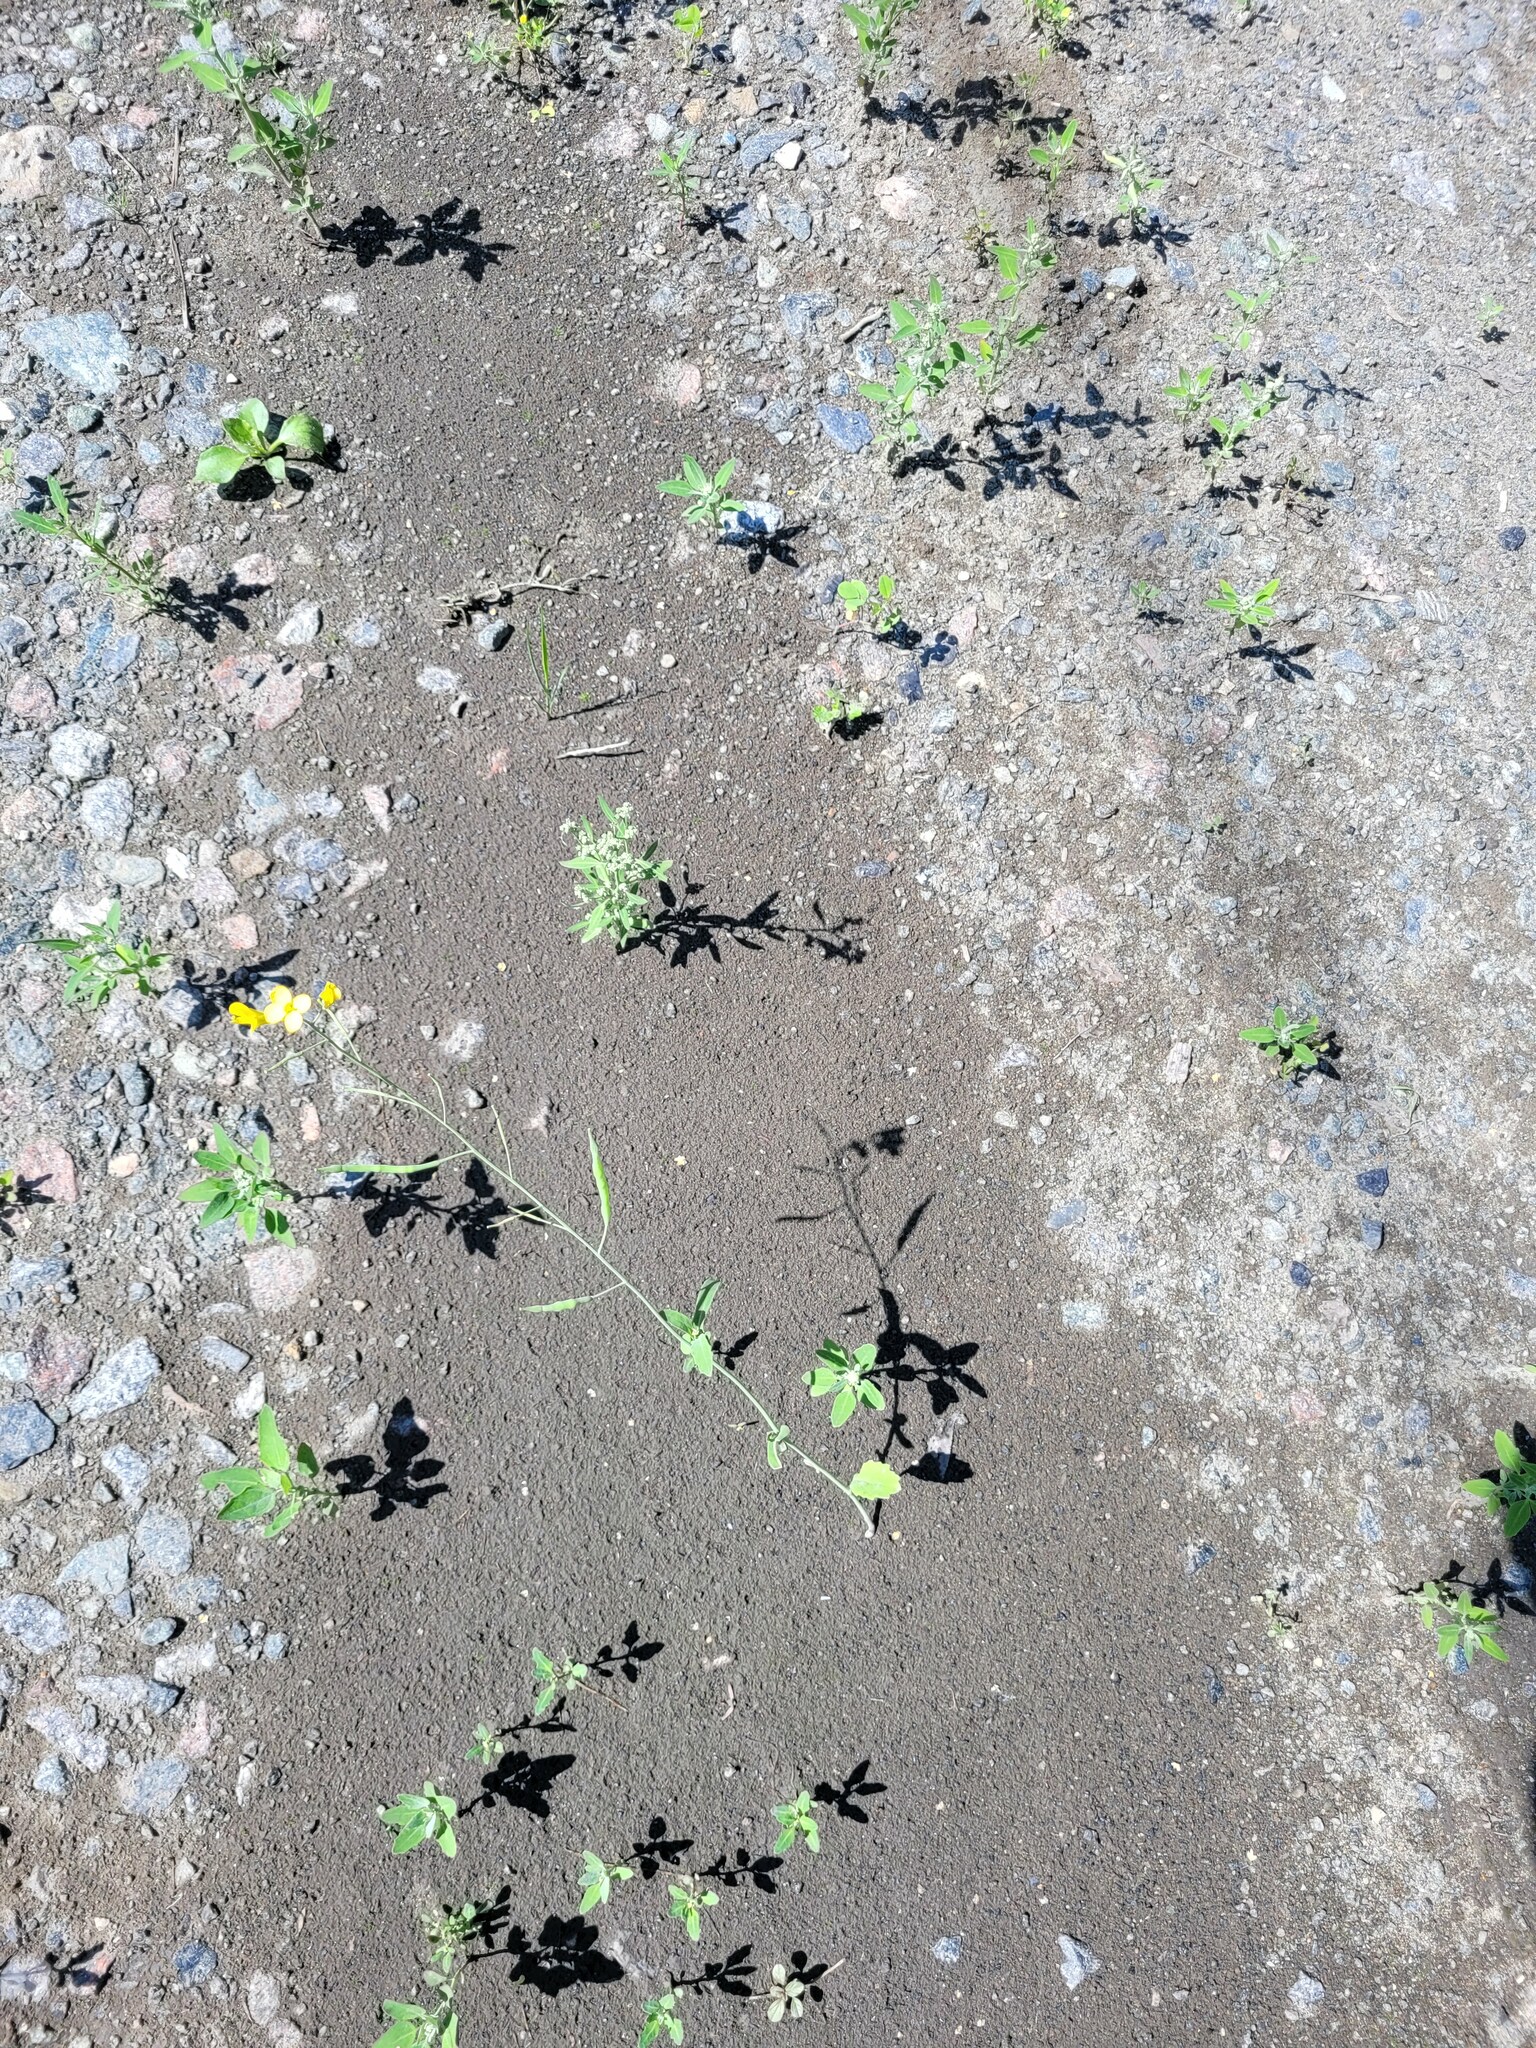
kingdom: Plantae
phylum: Tracheophyta
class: Magnoliopsida
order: Brassicales
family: Brassicaceae
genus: Brassica
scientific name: Brassica napus
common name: Rape
